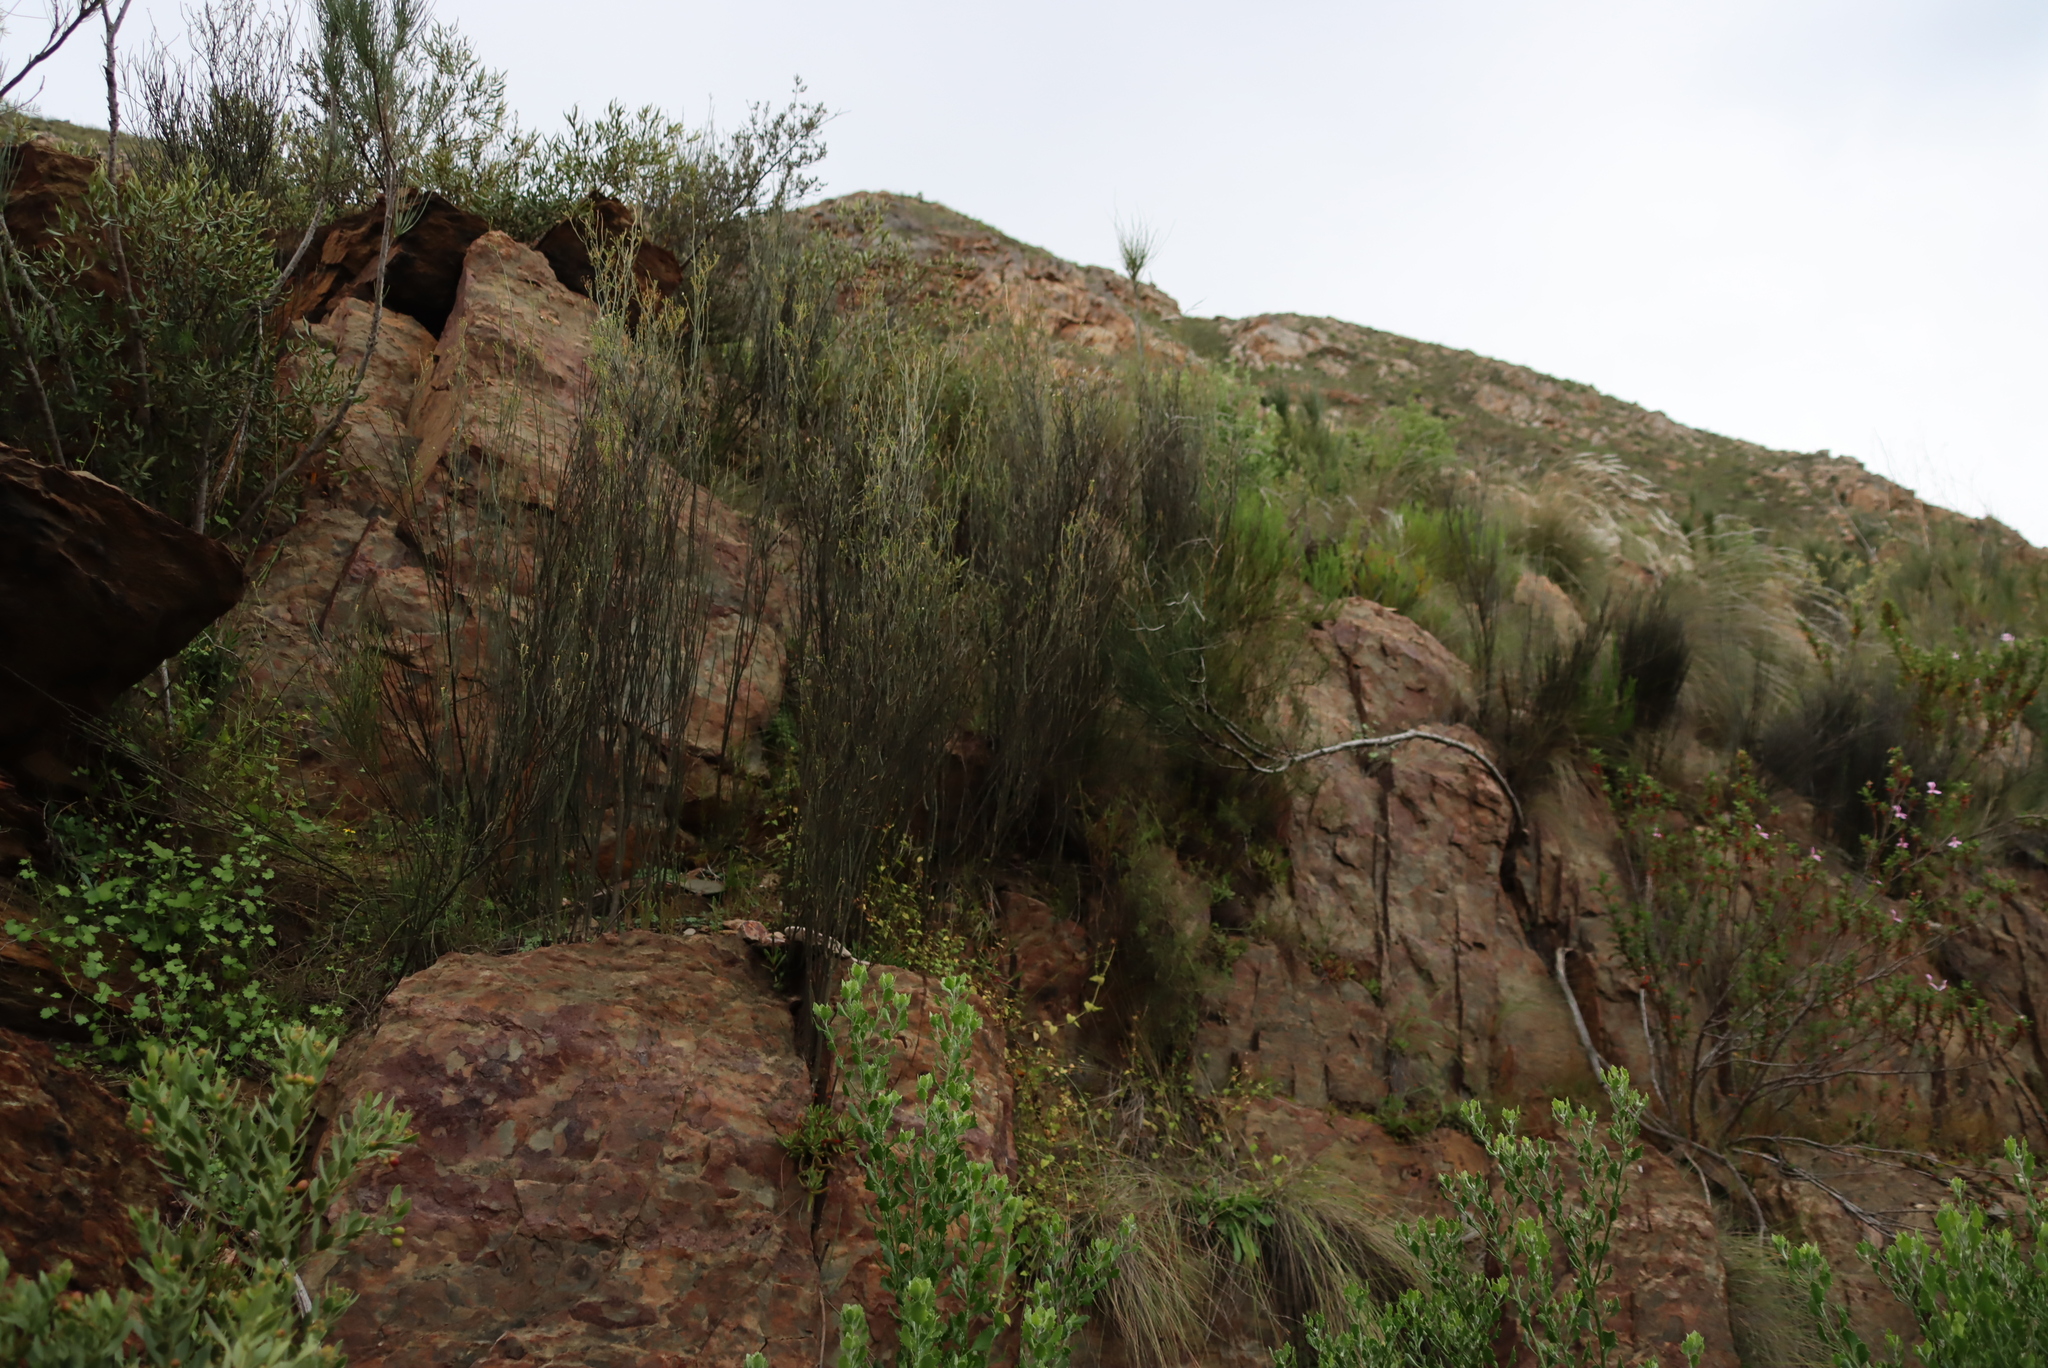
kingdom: Plantae
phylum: Tracheophyta
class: Magnoliopsida
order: Solanales
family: Montiniaceae
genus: Montinia
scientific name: Montinia caryophyllacea
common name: Wild clove-bush
